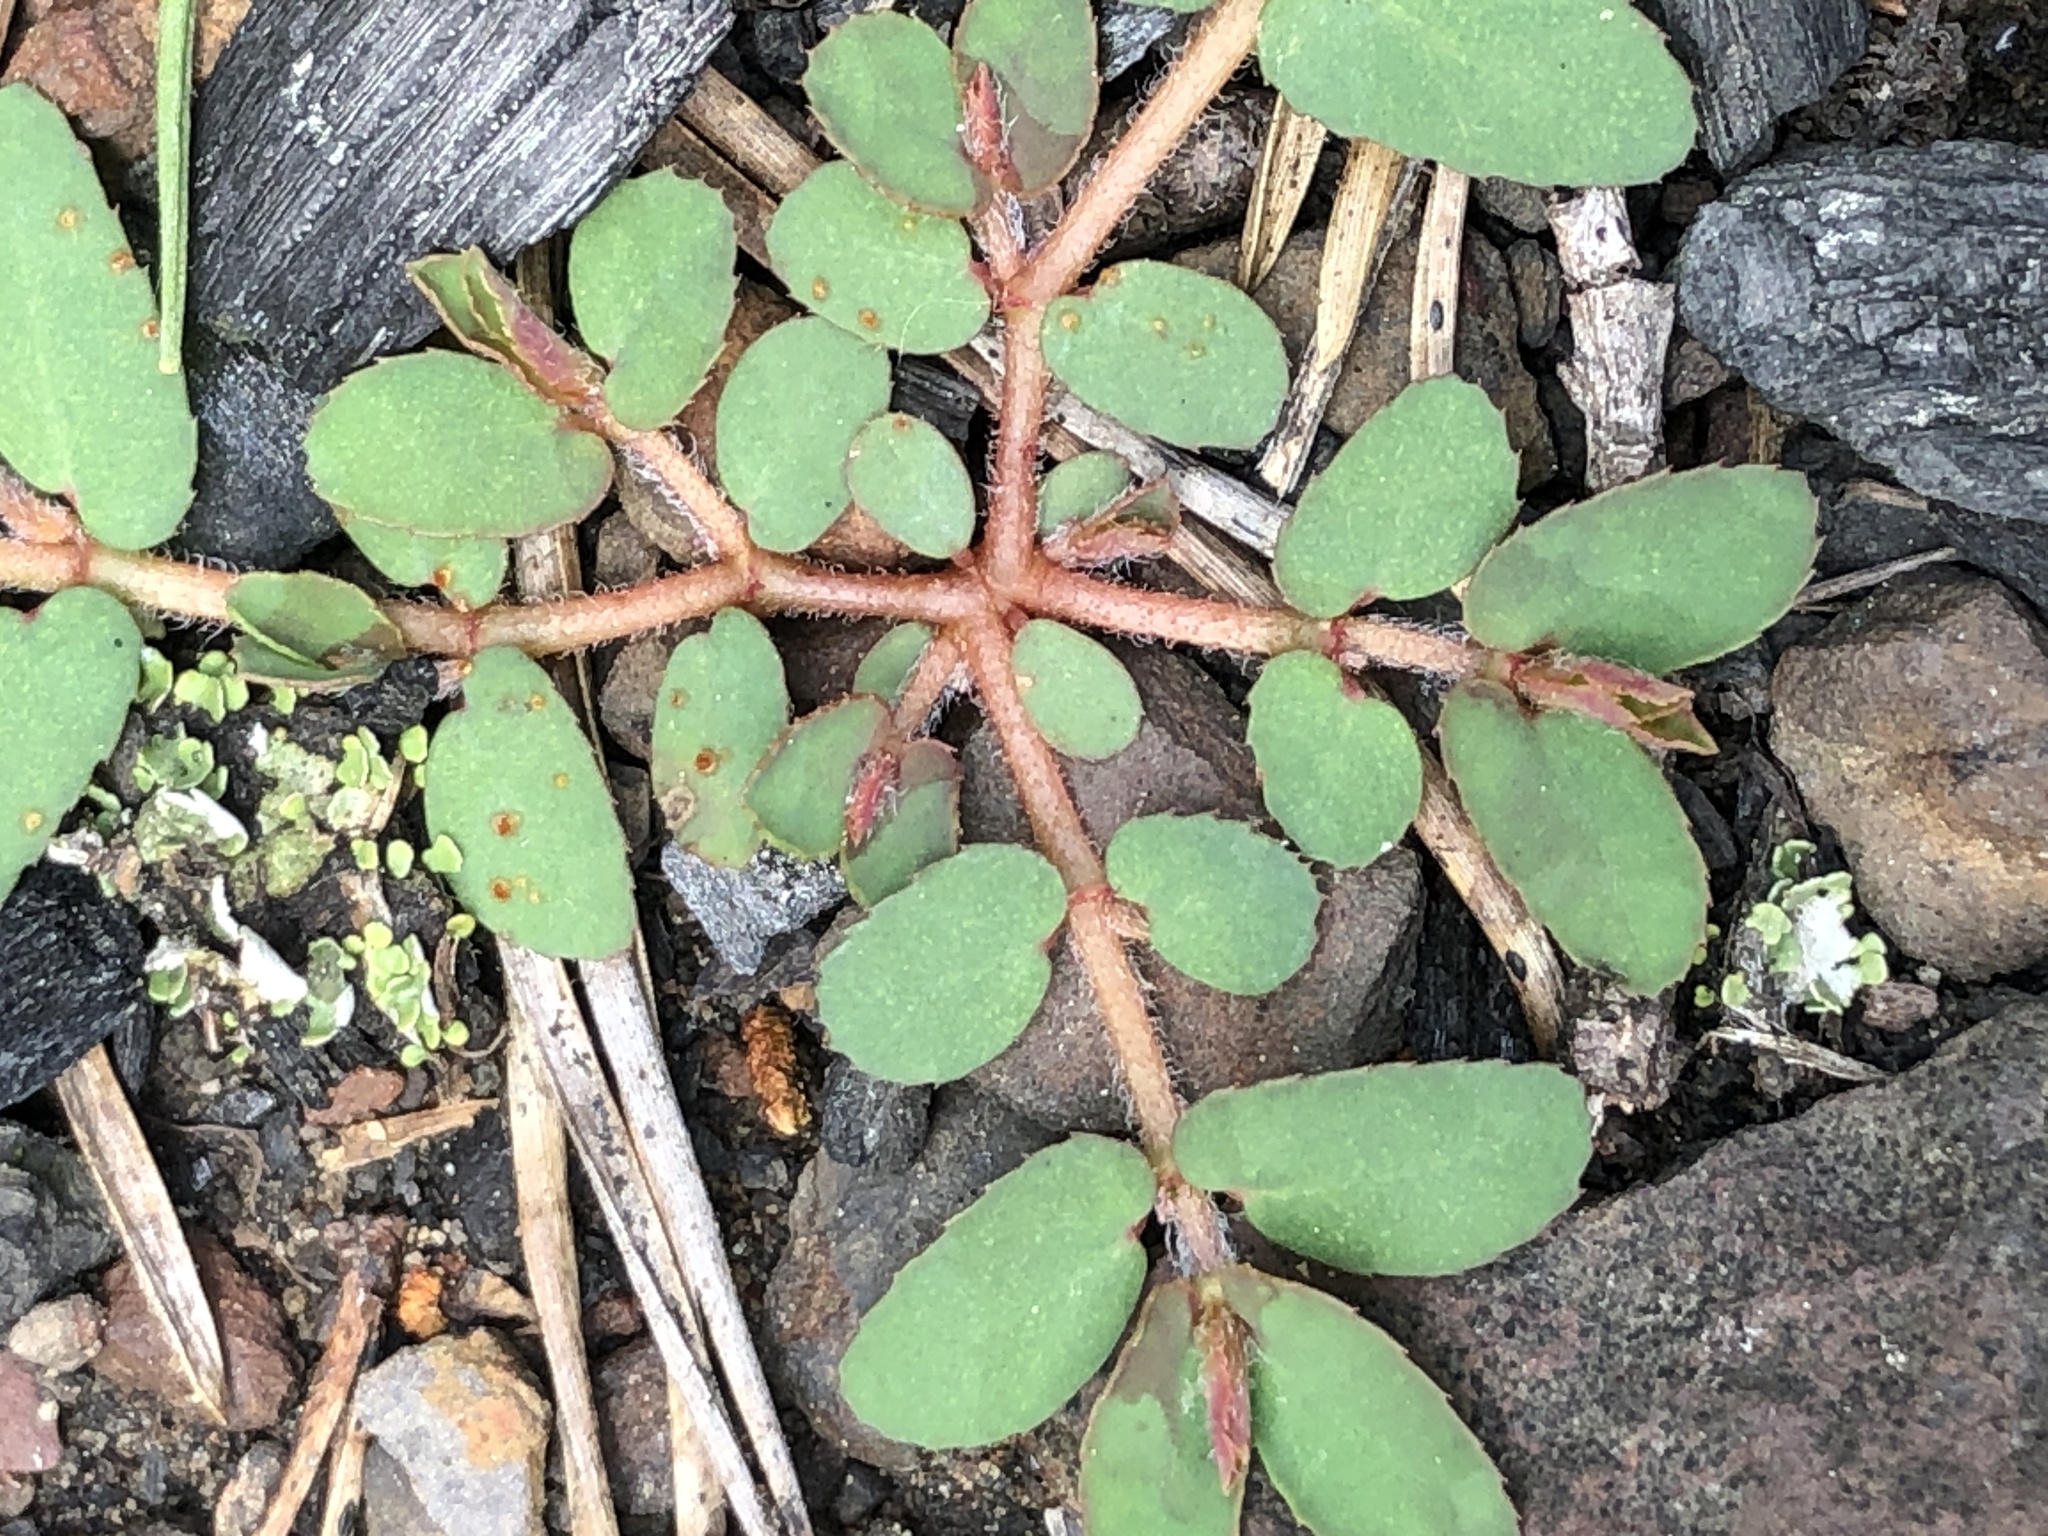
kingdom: Plantae
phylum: Tracheophyta
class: Magnoliopsida
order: Malpighiales
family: Euphorbiaceae
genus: Euphorbia
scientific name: Euphorbia maculata
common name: Spotted spurge
